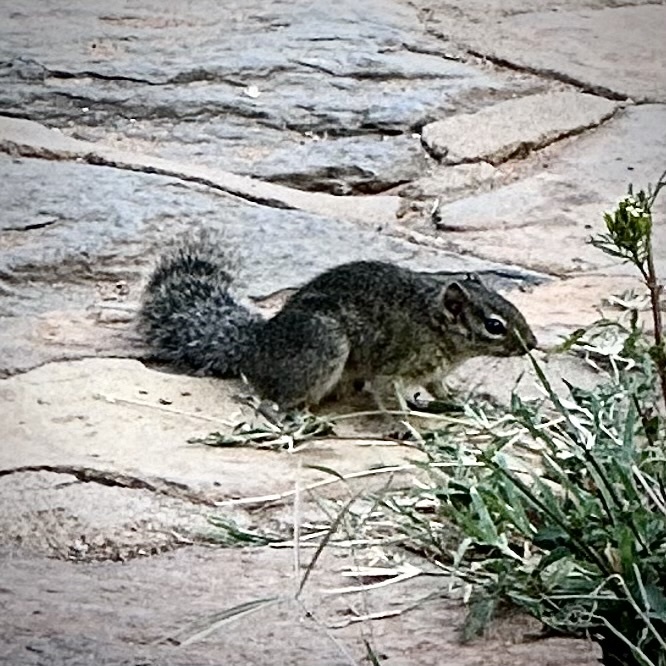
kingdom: Animalia
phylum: Chordata
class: Mammalia
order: Rodentia
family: Sciuridae
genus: Paraxerus
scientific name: Paraxerus ochraceus
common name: Ochre bush squirrel
